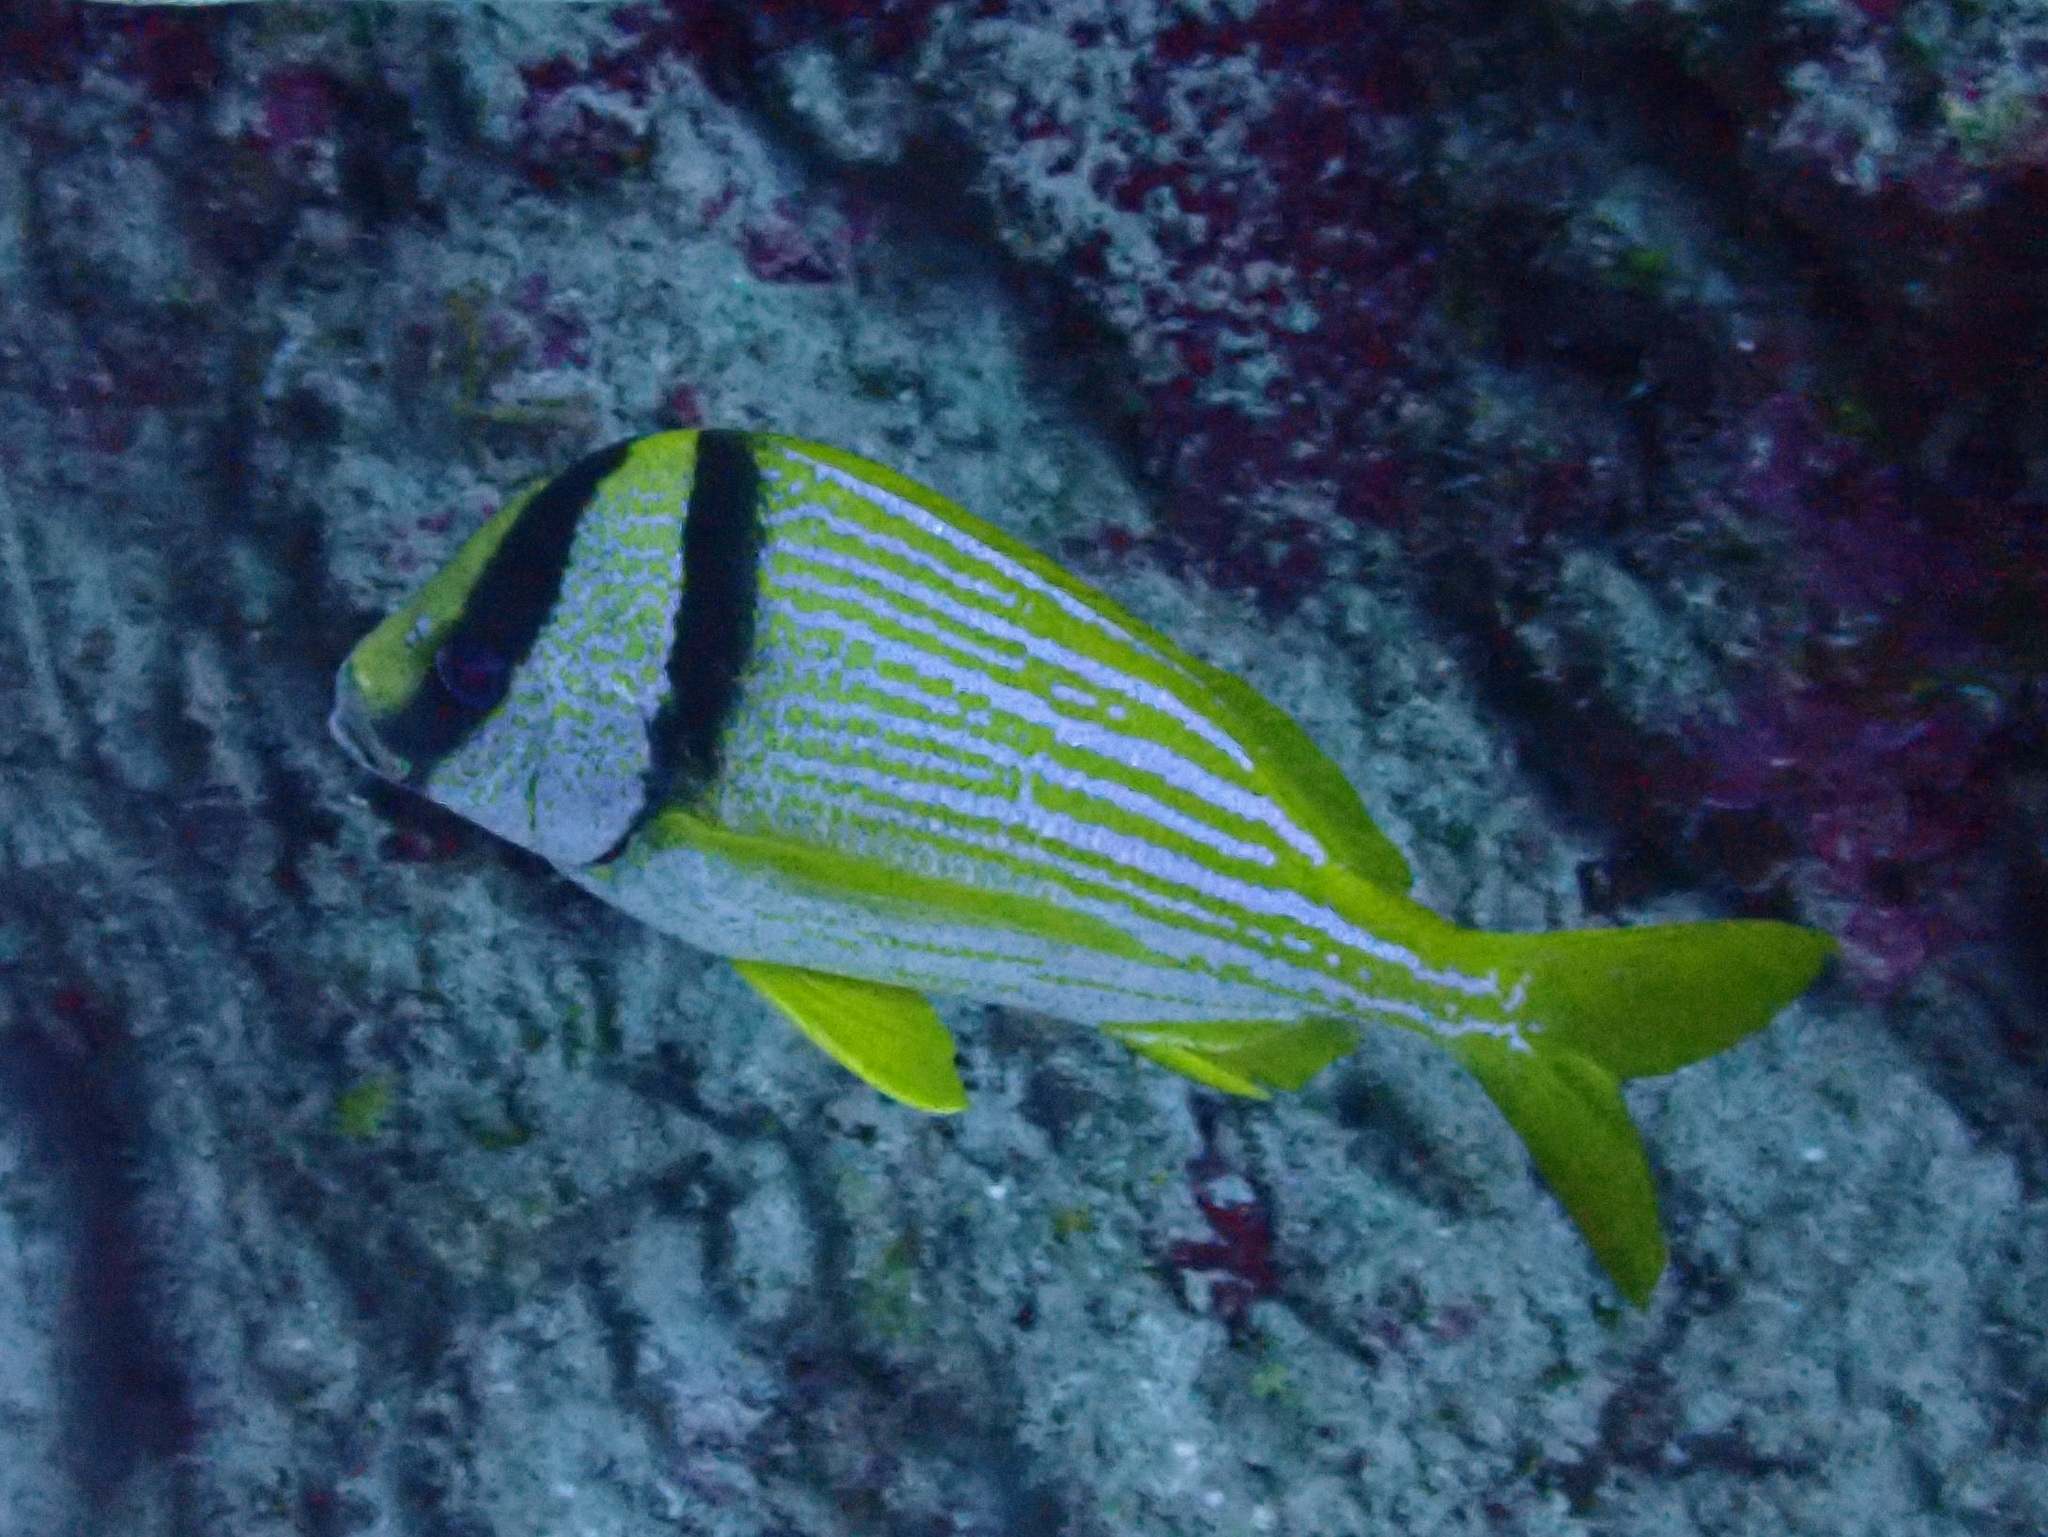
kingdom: Animalia
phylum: Chordata
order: Perciformes
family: Haemulidae
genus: Anisotremus
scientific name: Anisotremus virginicus
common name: Porkfish
